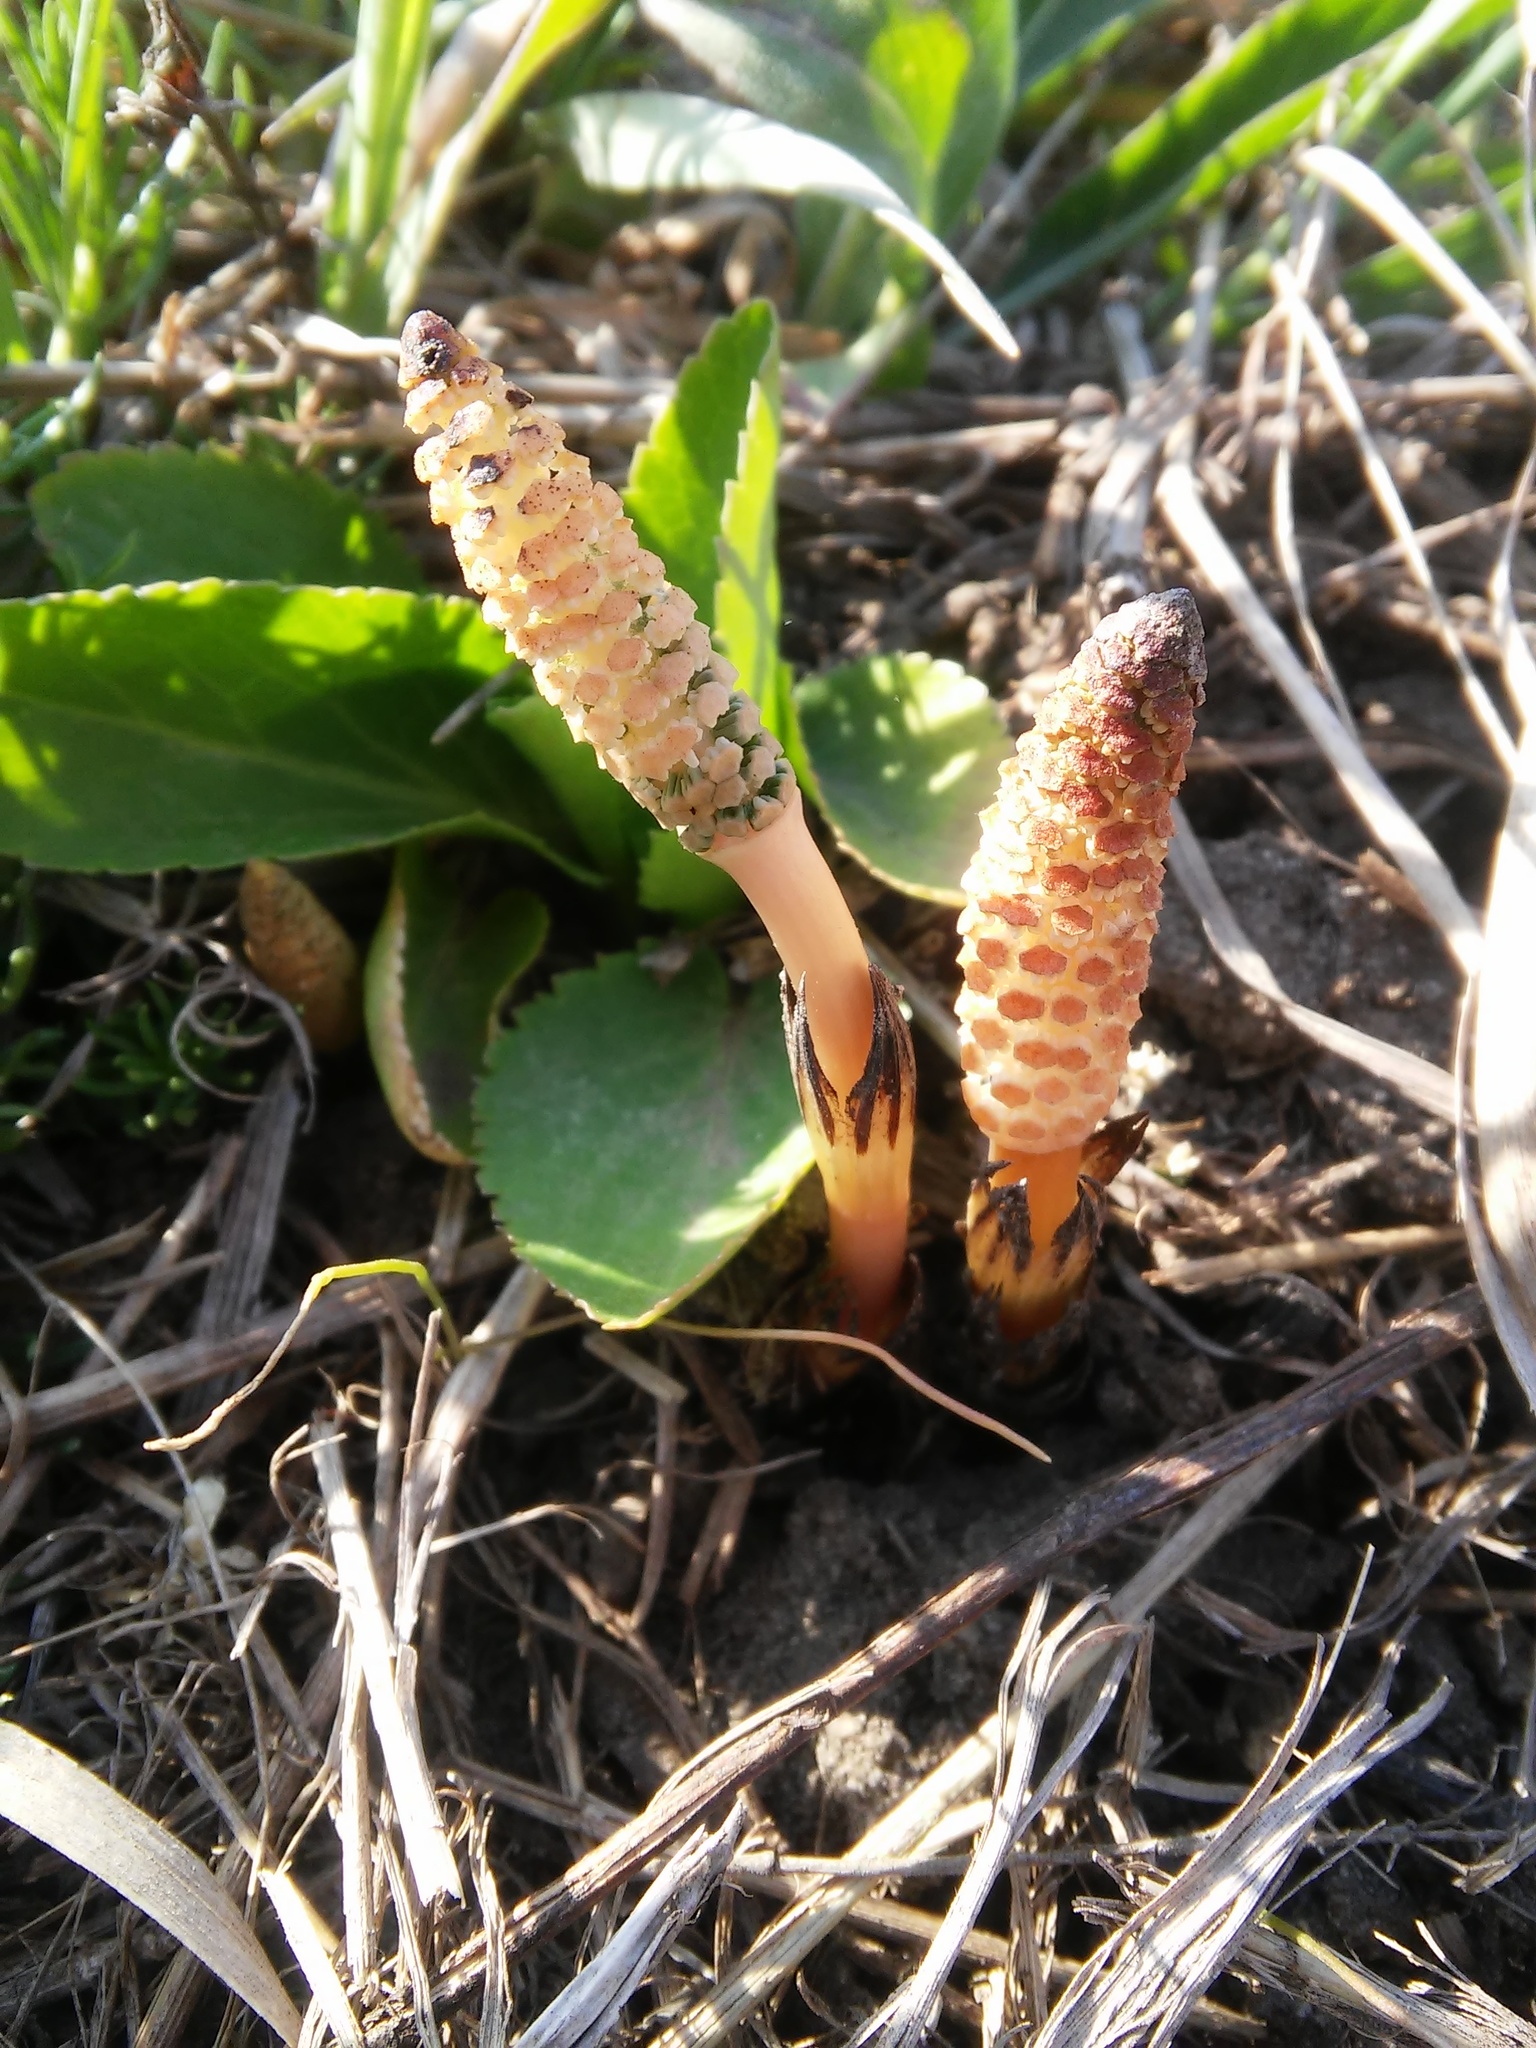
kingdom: Plantae
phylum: Tracheophyta
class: Polypodiopsida
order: Equisetales
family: Equisetaceae
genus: Equisetum
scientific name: Equisetum arvense
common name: Field horsetail
